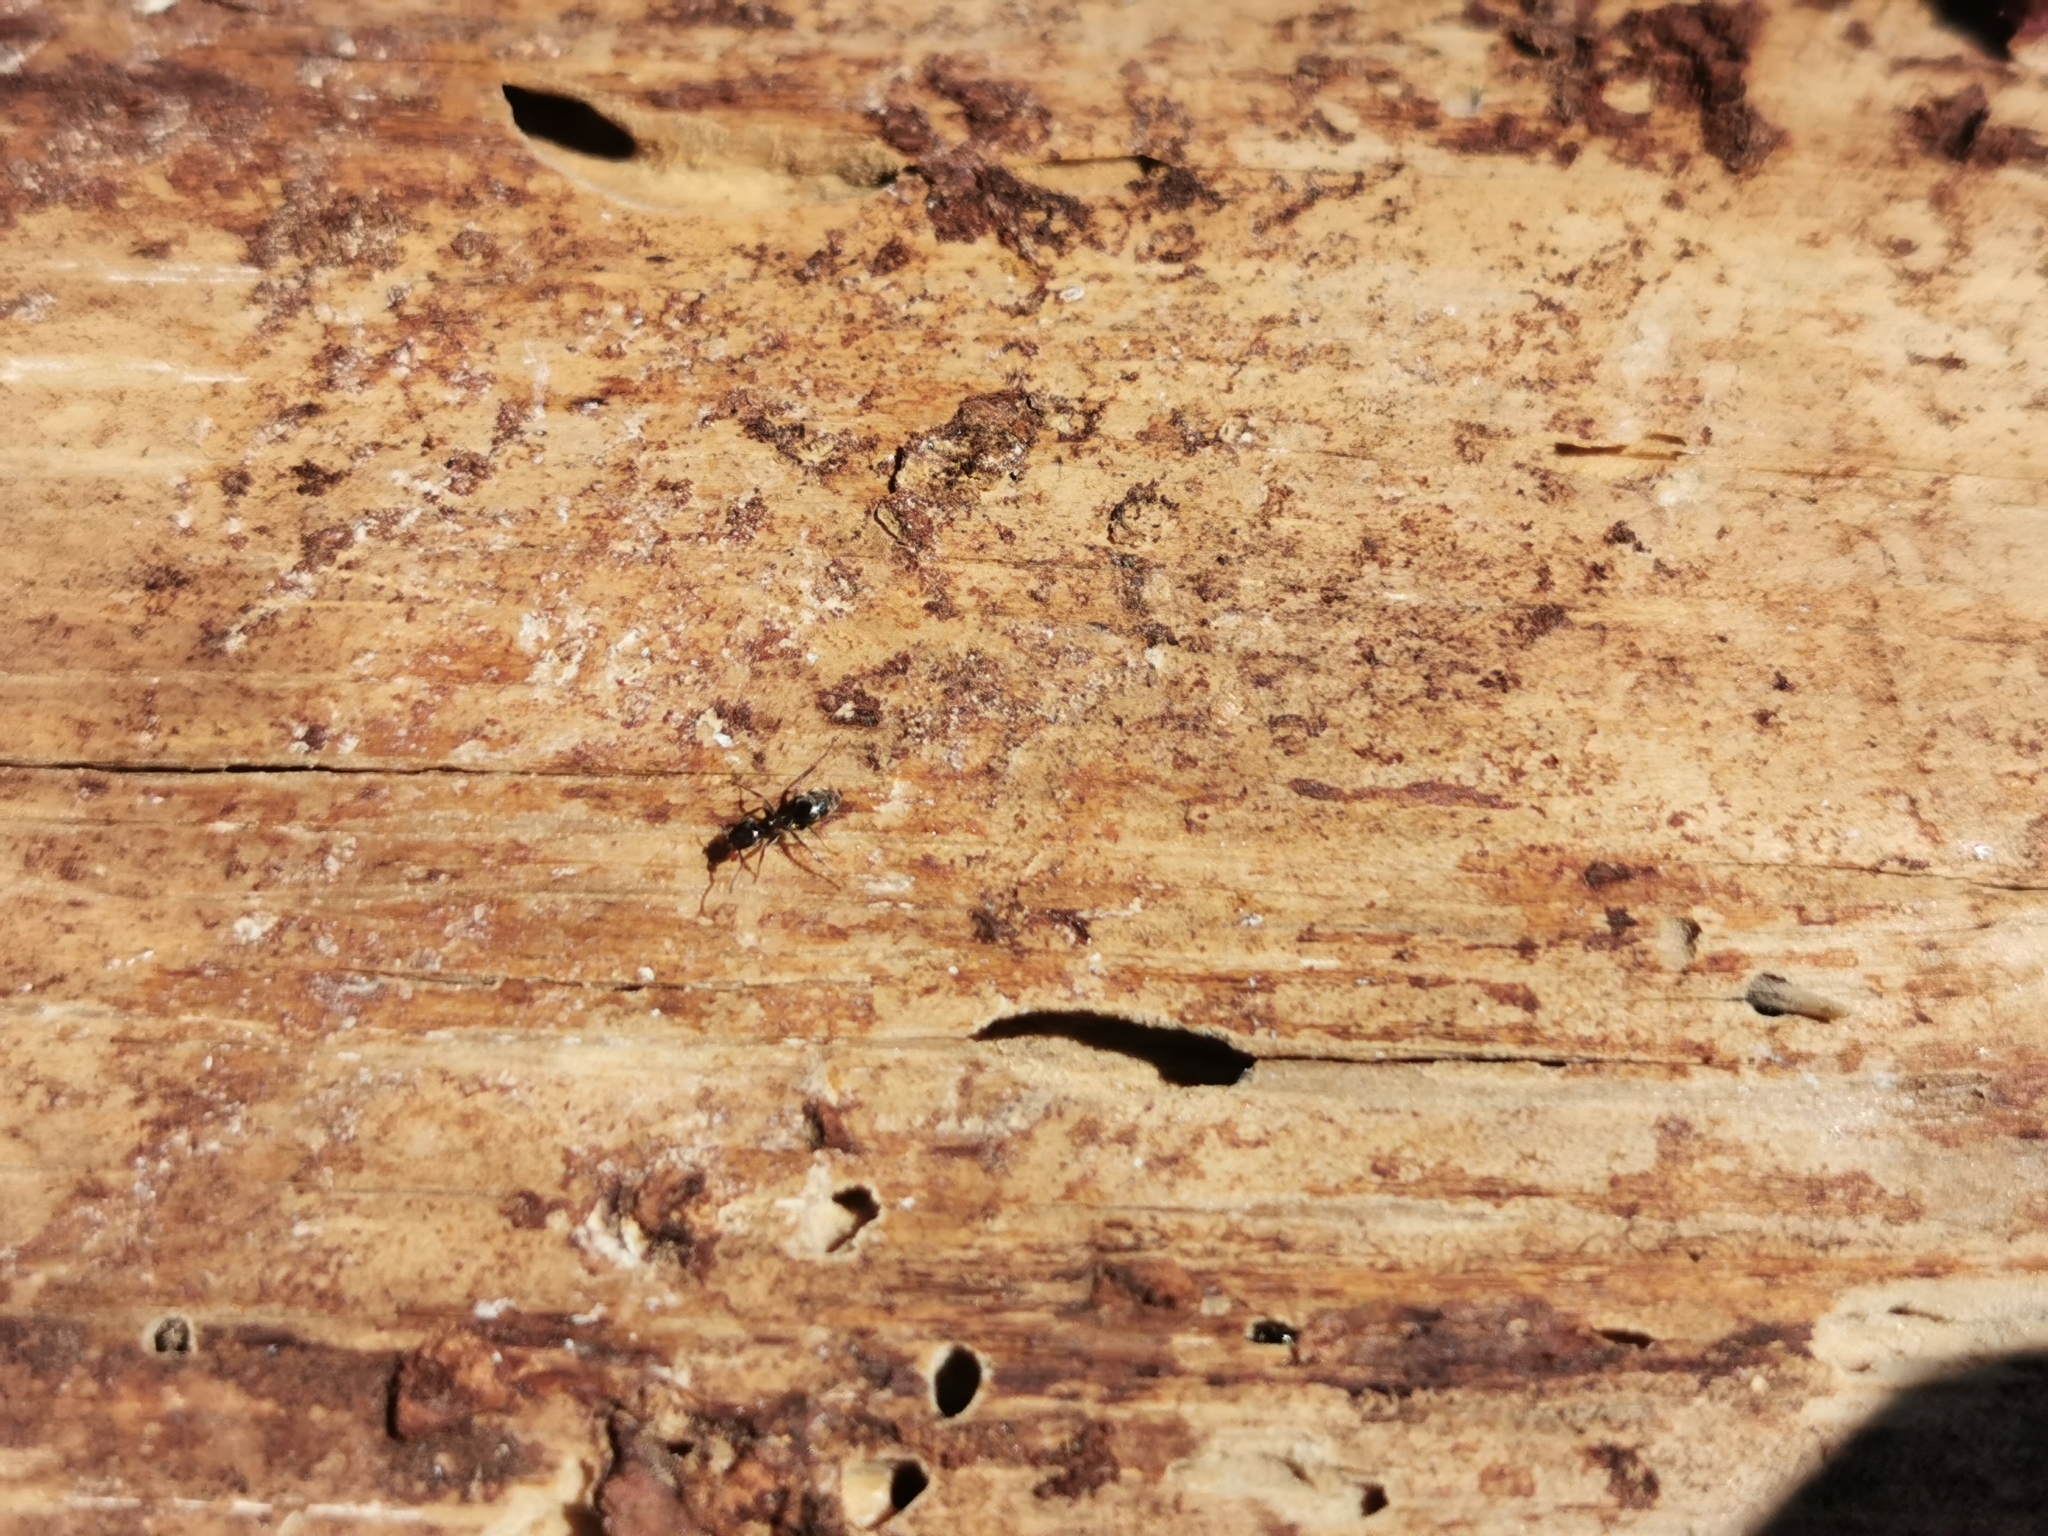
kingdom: Animalia
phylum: Arthropoda
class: Insecta
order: Hymenoptera
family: Formicidae
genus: Liometopum
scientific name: Liometopum luctuosum
